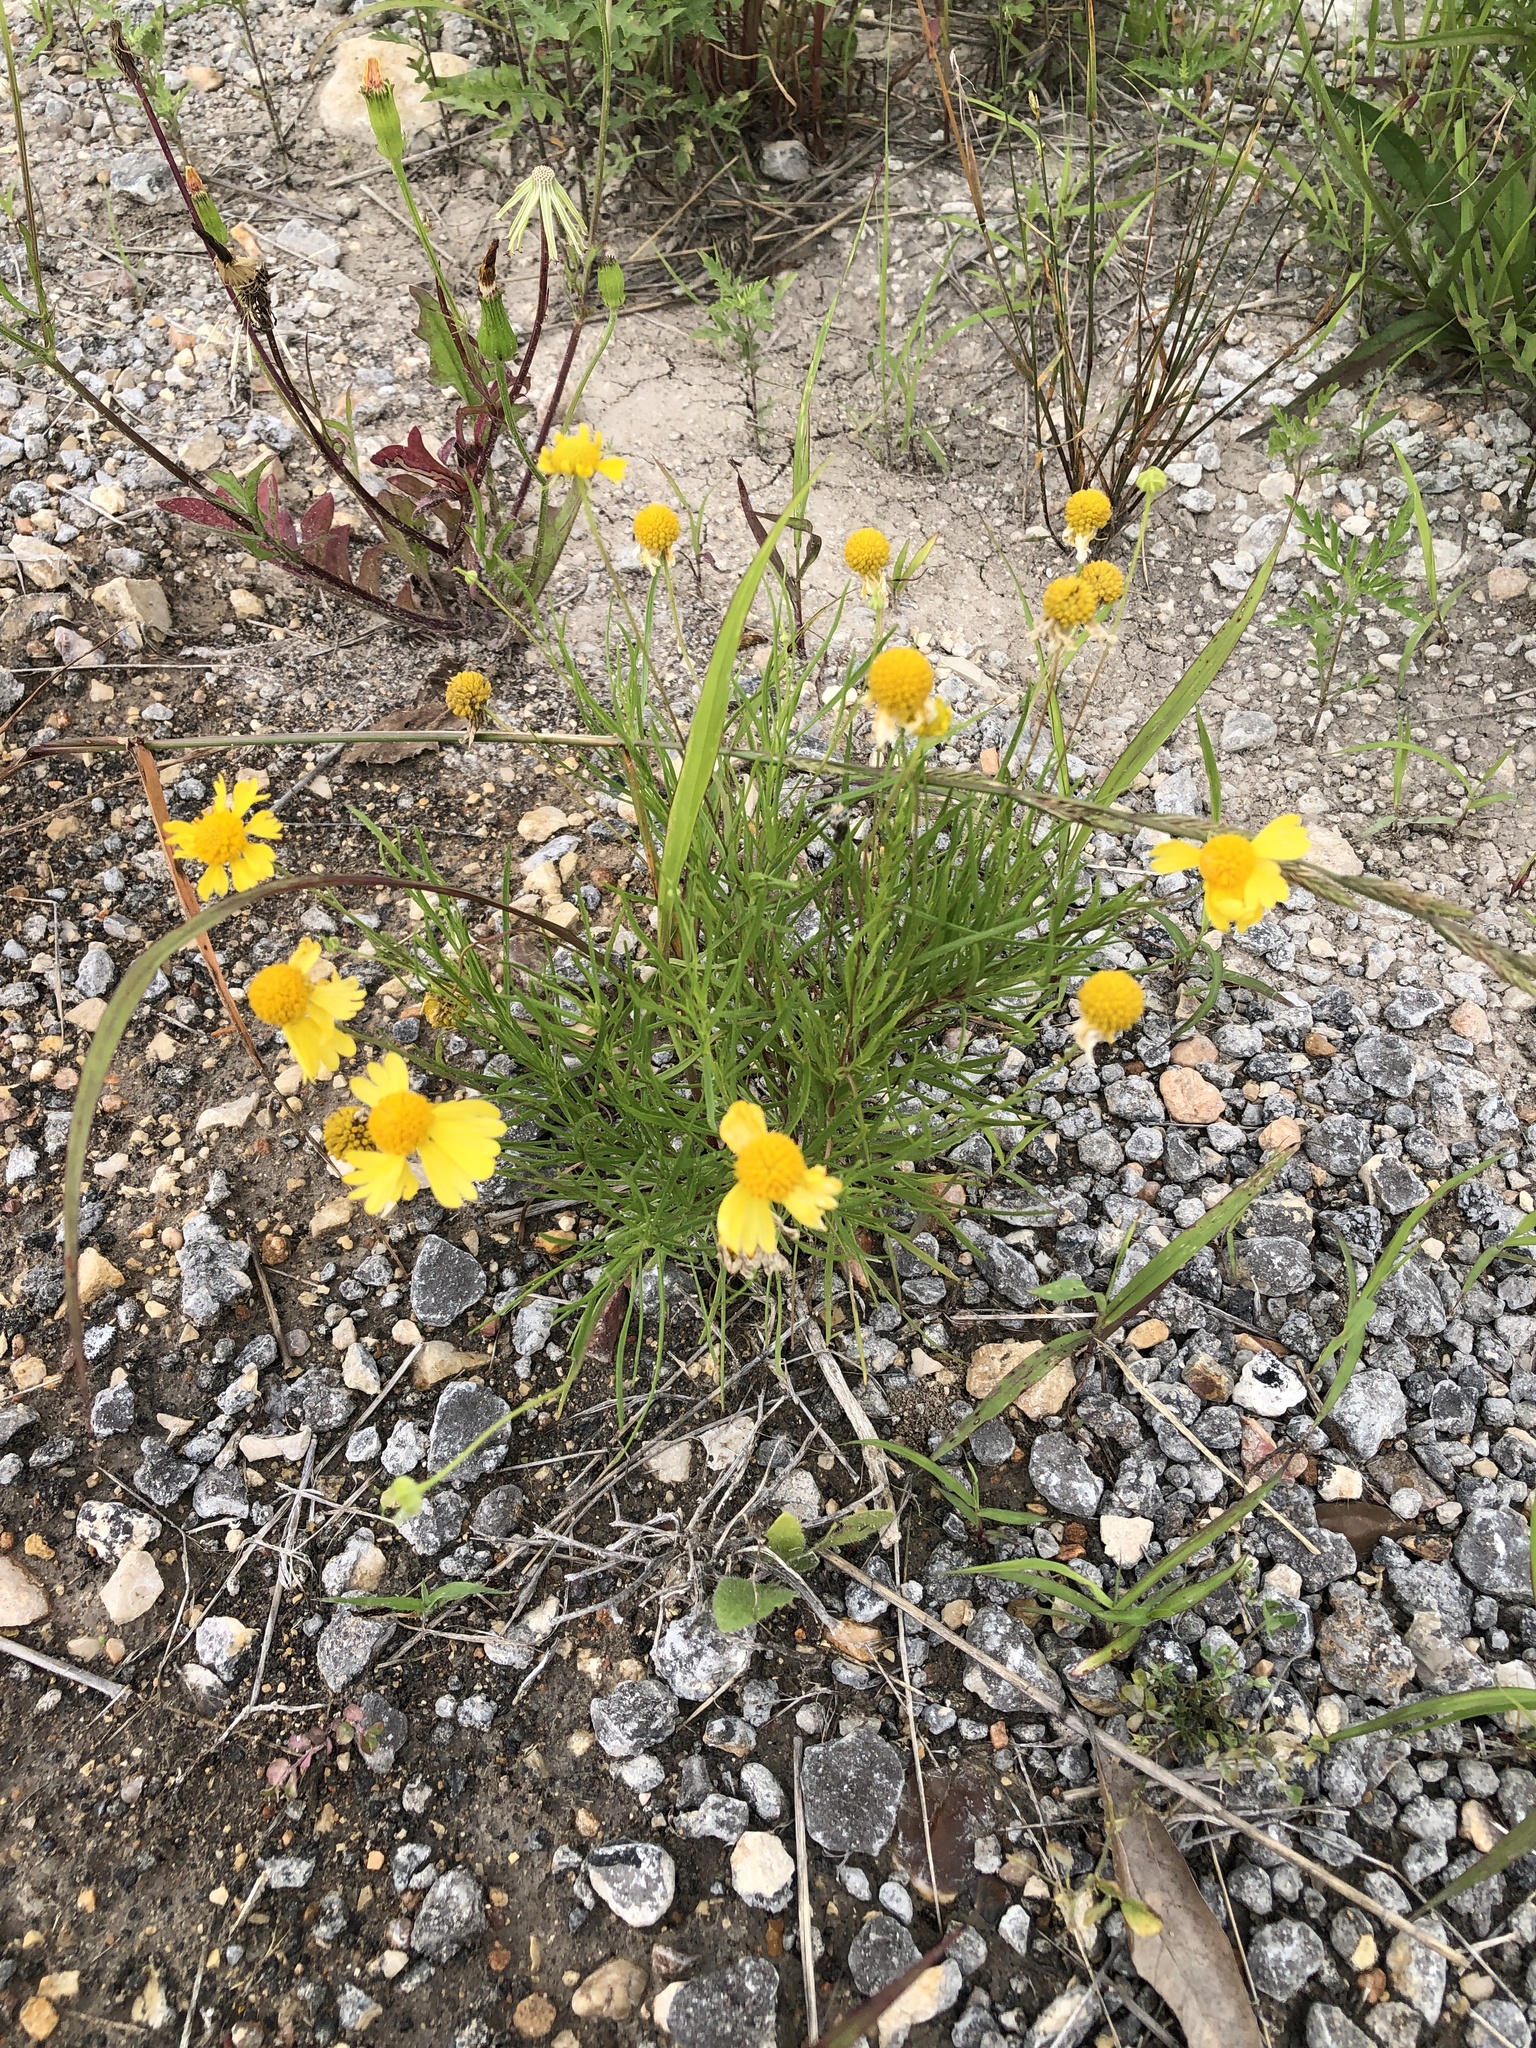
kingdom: Plantae
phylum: Tracheophyta
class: Magnoliopsida
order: Asterales
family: Asteraceae
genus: Helenium
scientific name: Helenium amarum
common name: Bitter sneezeweed
